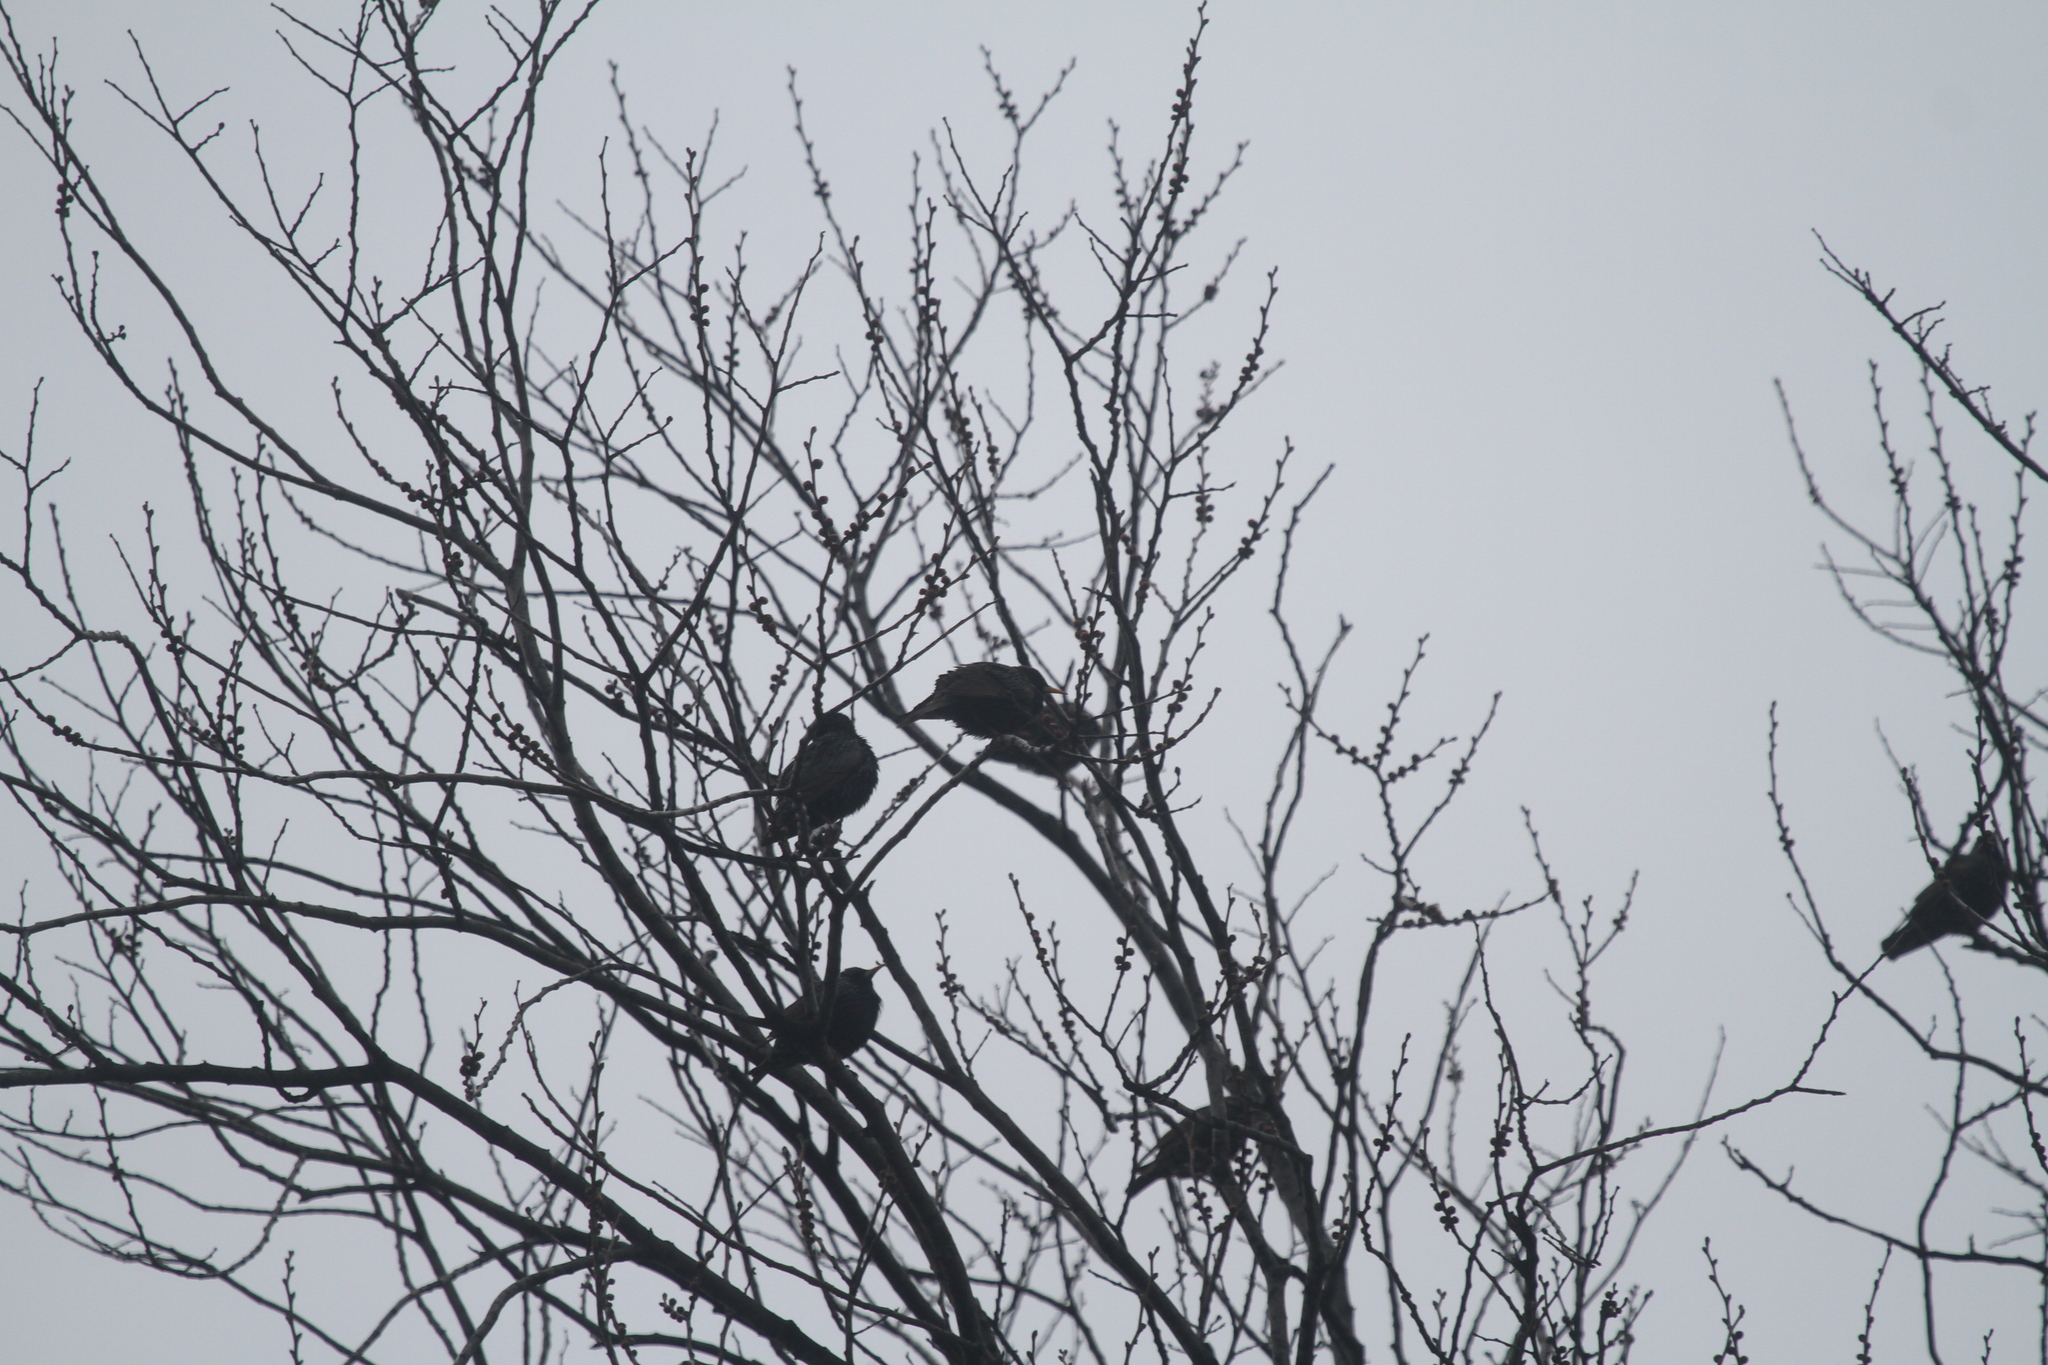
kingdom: Animalia
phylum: Chordata
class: Aves
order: Passeriformes
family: Sturnidae
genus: Sturnus
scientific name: Sturnus vulgaris
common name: Common starling
